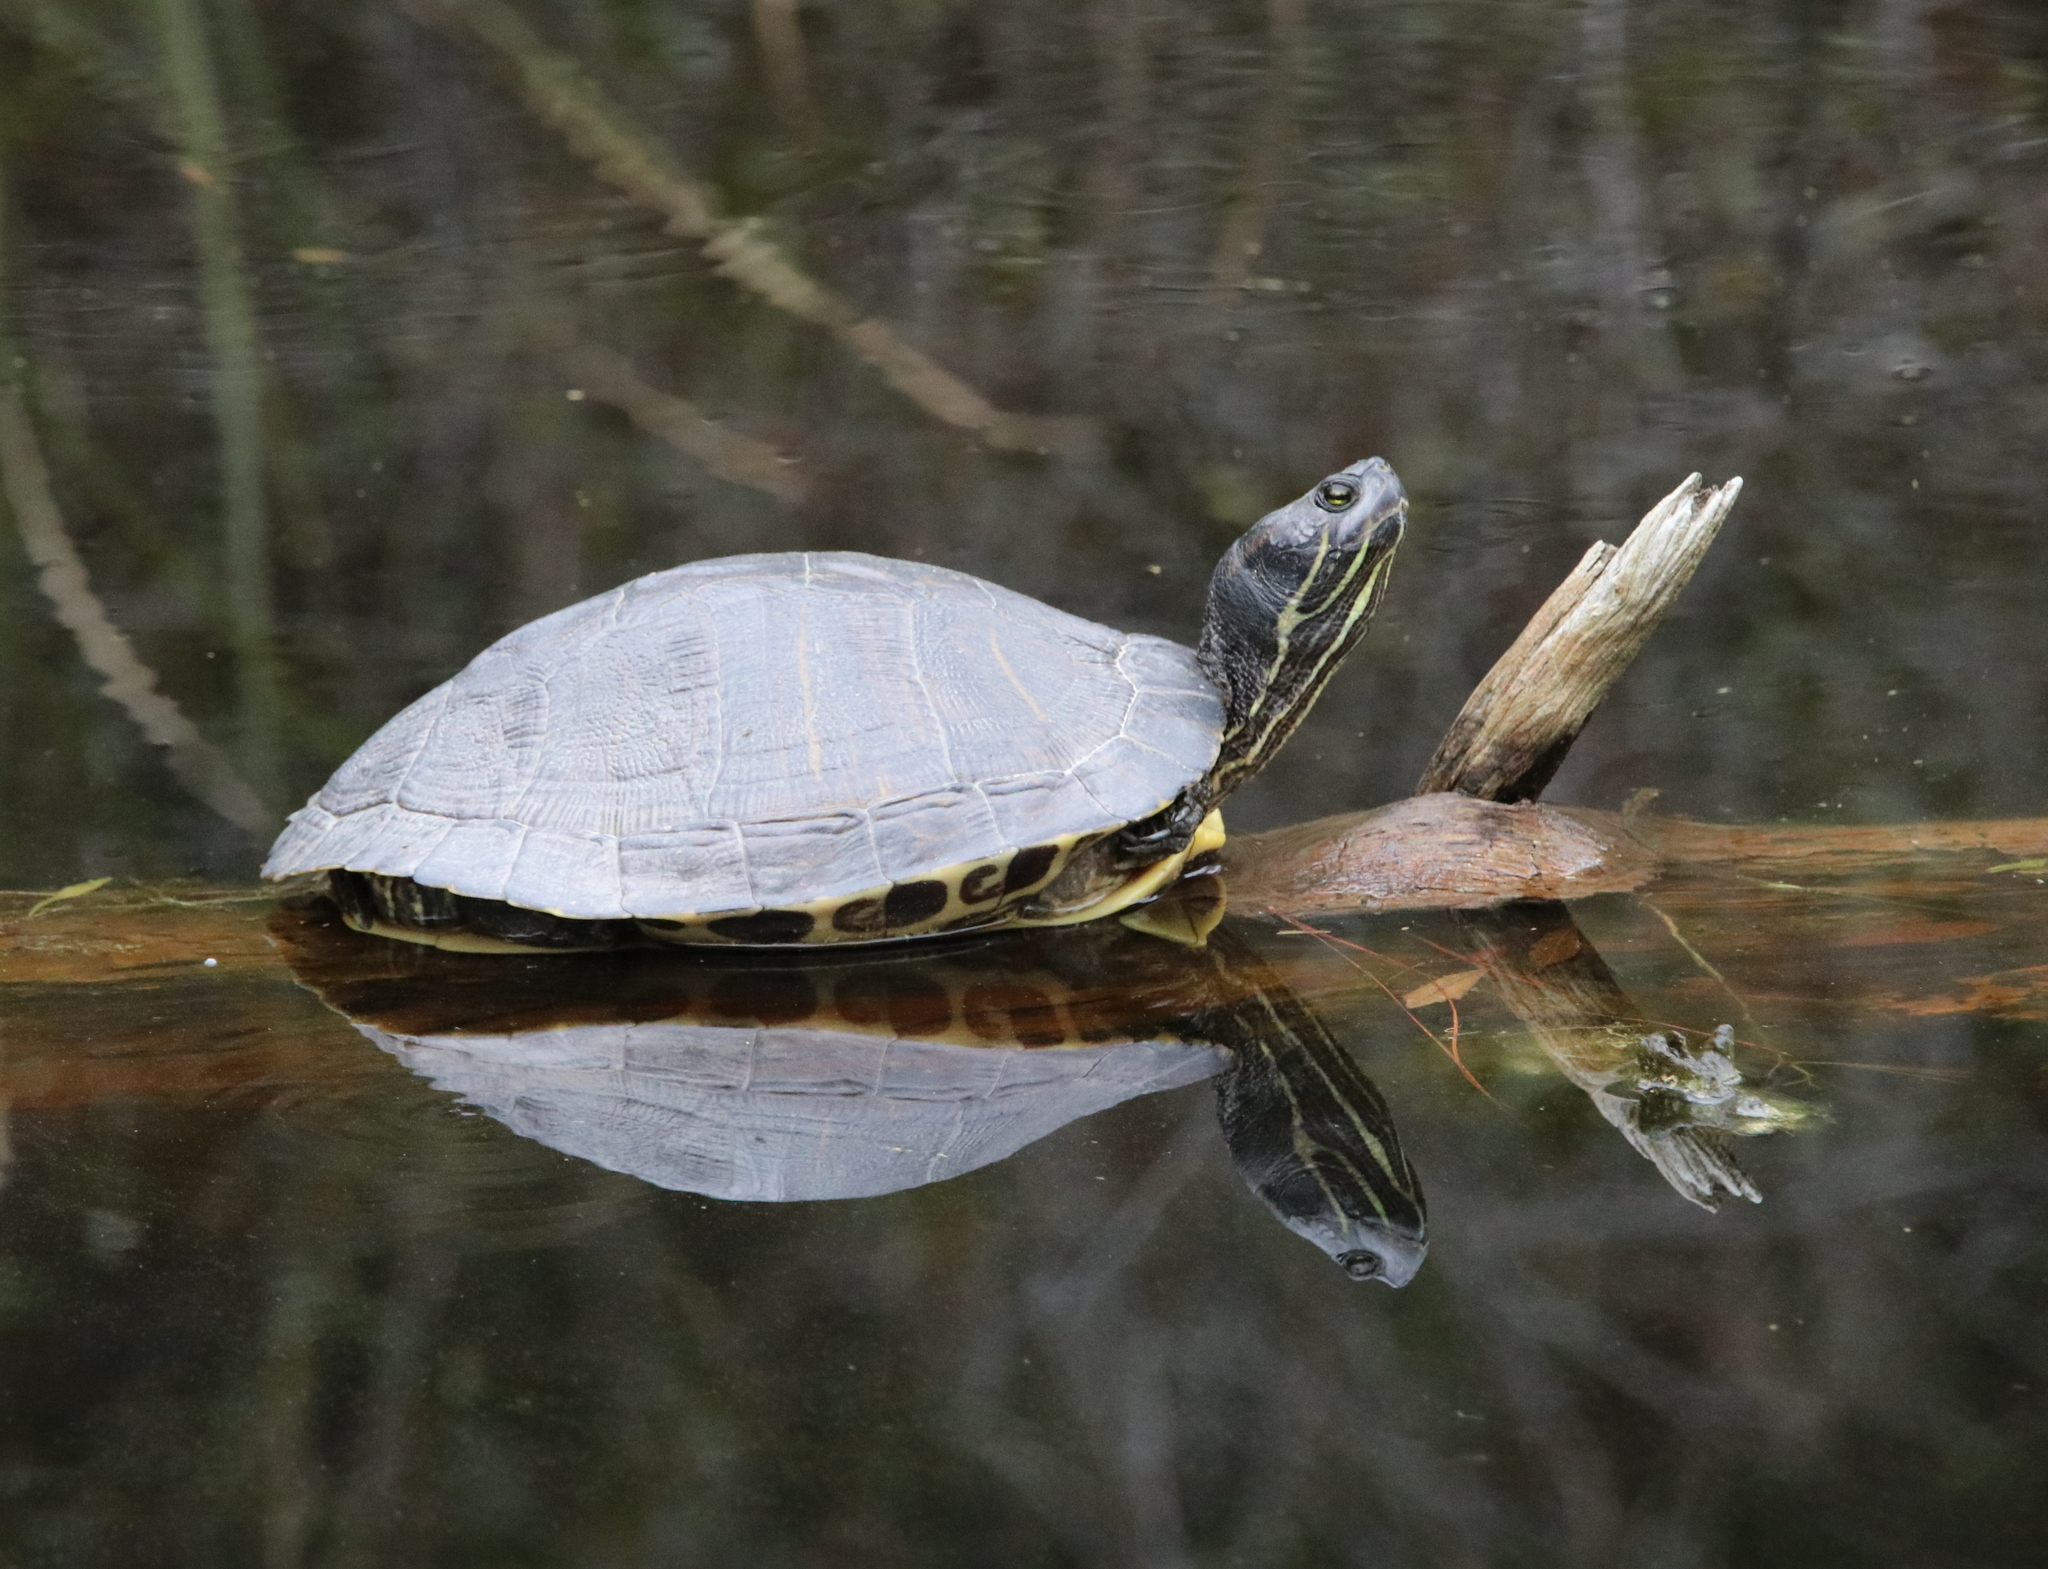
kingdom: Animalia
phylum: Chordata
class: Testudines
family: Emydidae
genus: Trachemys
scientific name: Trachemys scripta
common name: Slider
